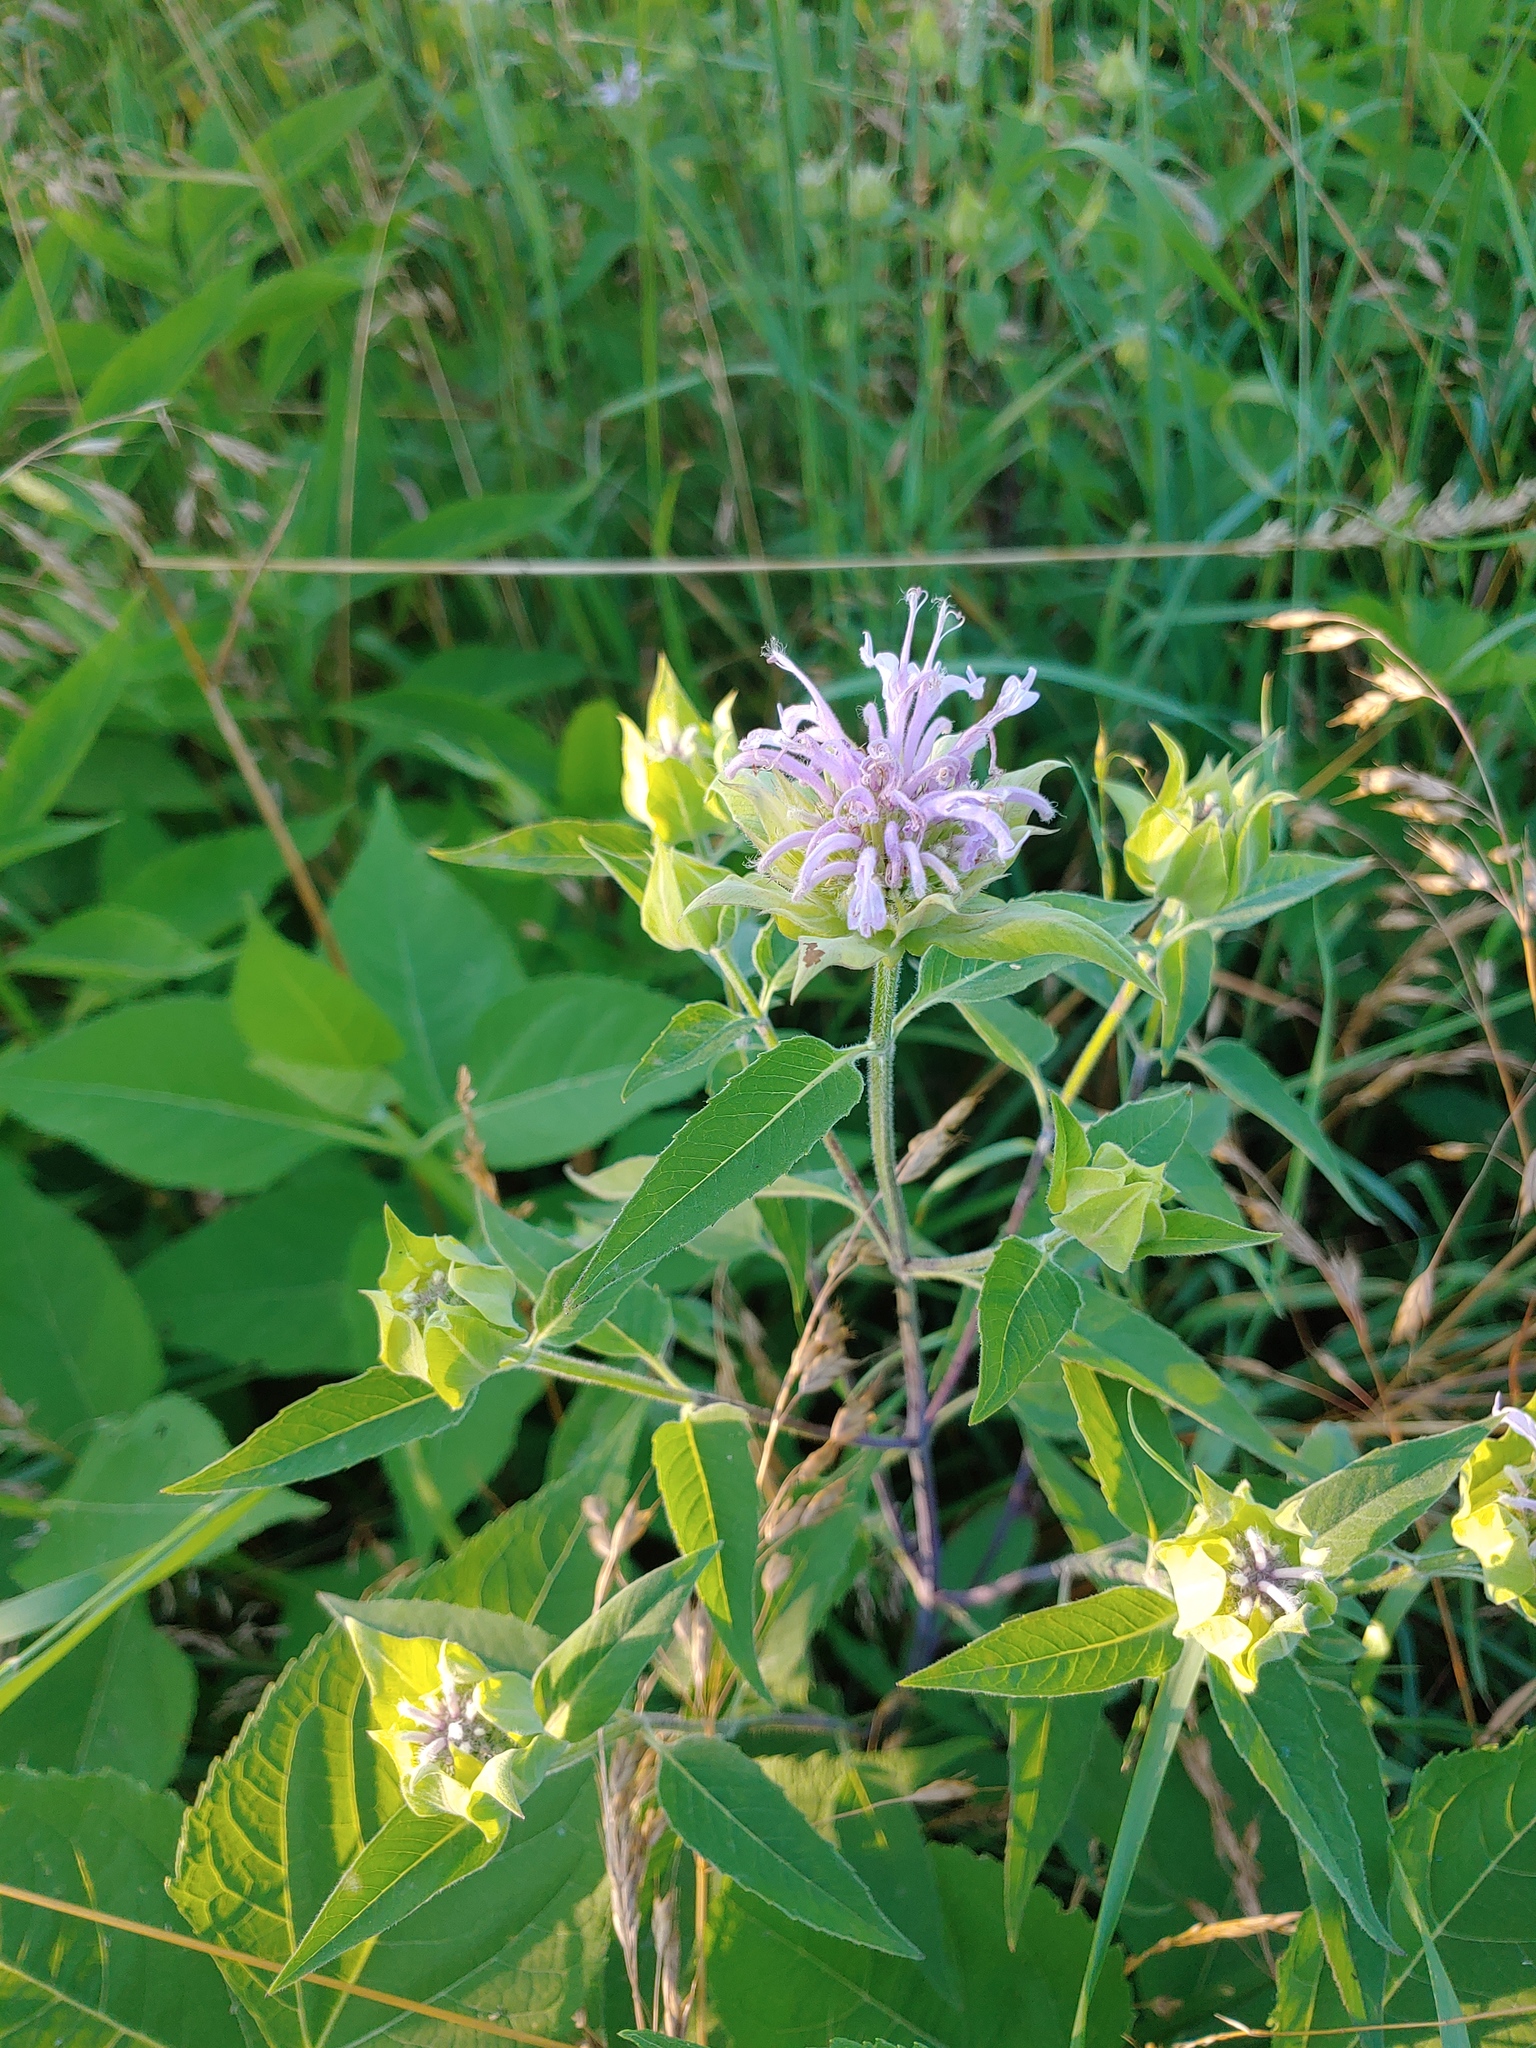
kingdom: Plantae
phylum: Tracheophyta
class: Magnoliopsida
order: Lamiales
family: Lamiaceae
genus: Monarda
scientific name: Monarda fistulosa
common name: Purple beebalm
